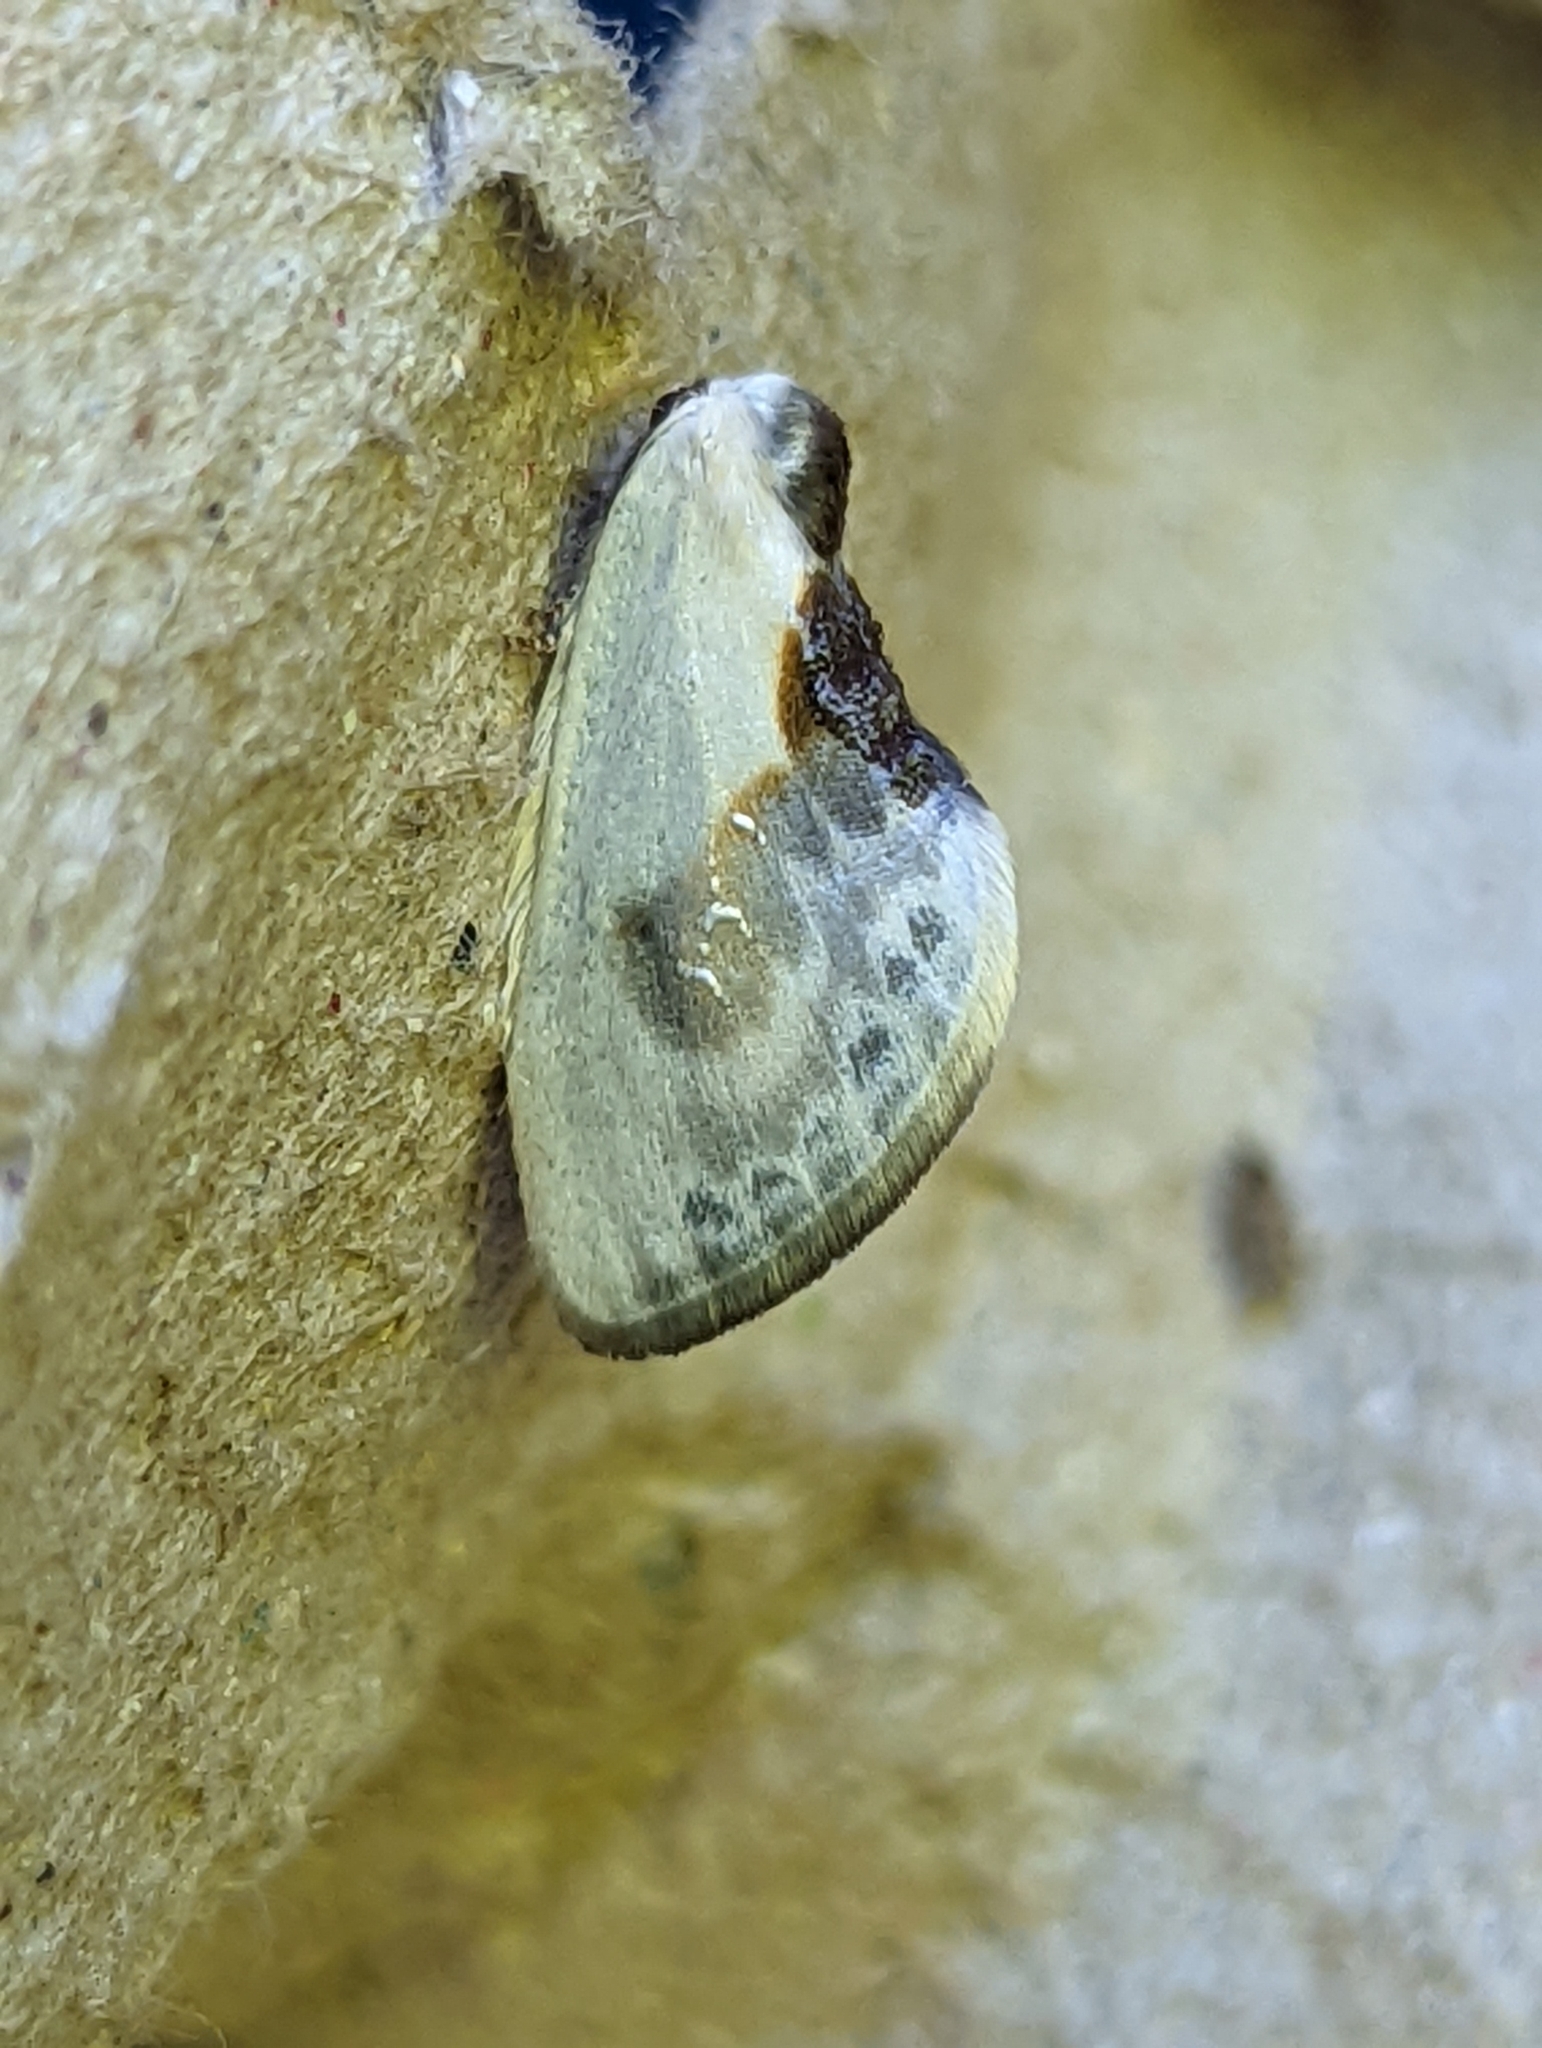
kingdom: Animalia
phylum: Arthropoda
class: Insecta
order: Lepidoptera
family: Drepanidae
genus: Cilix
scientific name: Cilix glaucata
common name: Chinese character
